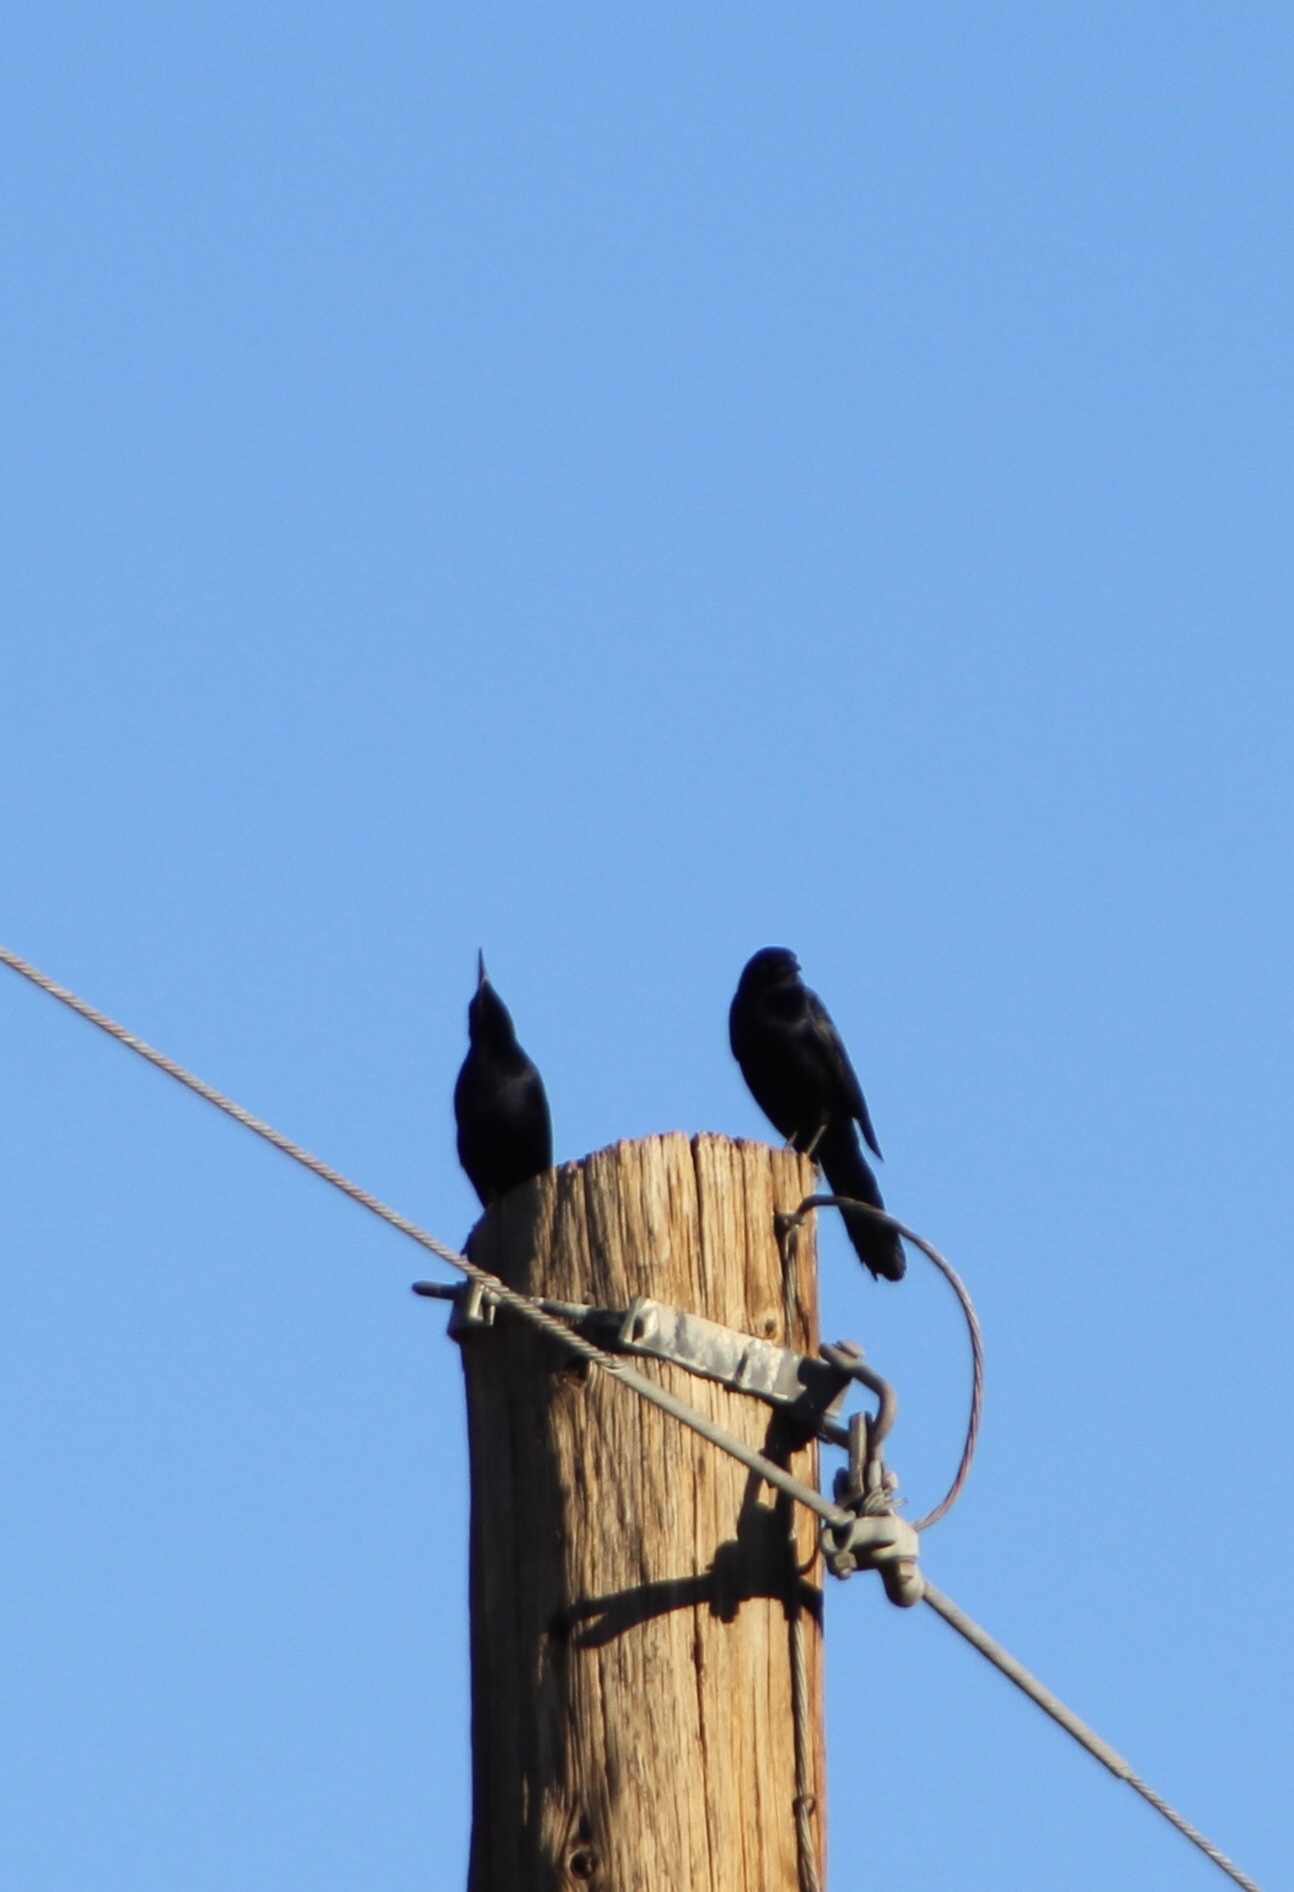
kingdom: Animalia
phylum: Chordata
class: Aves
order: Passeriformes
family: Icteridae
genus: Quiscalus
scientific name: Quiscalus mexicanus
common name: Great-tailed grackle
